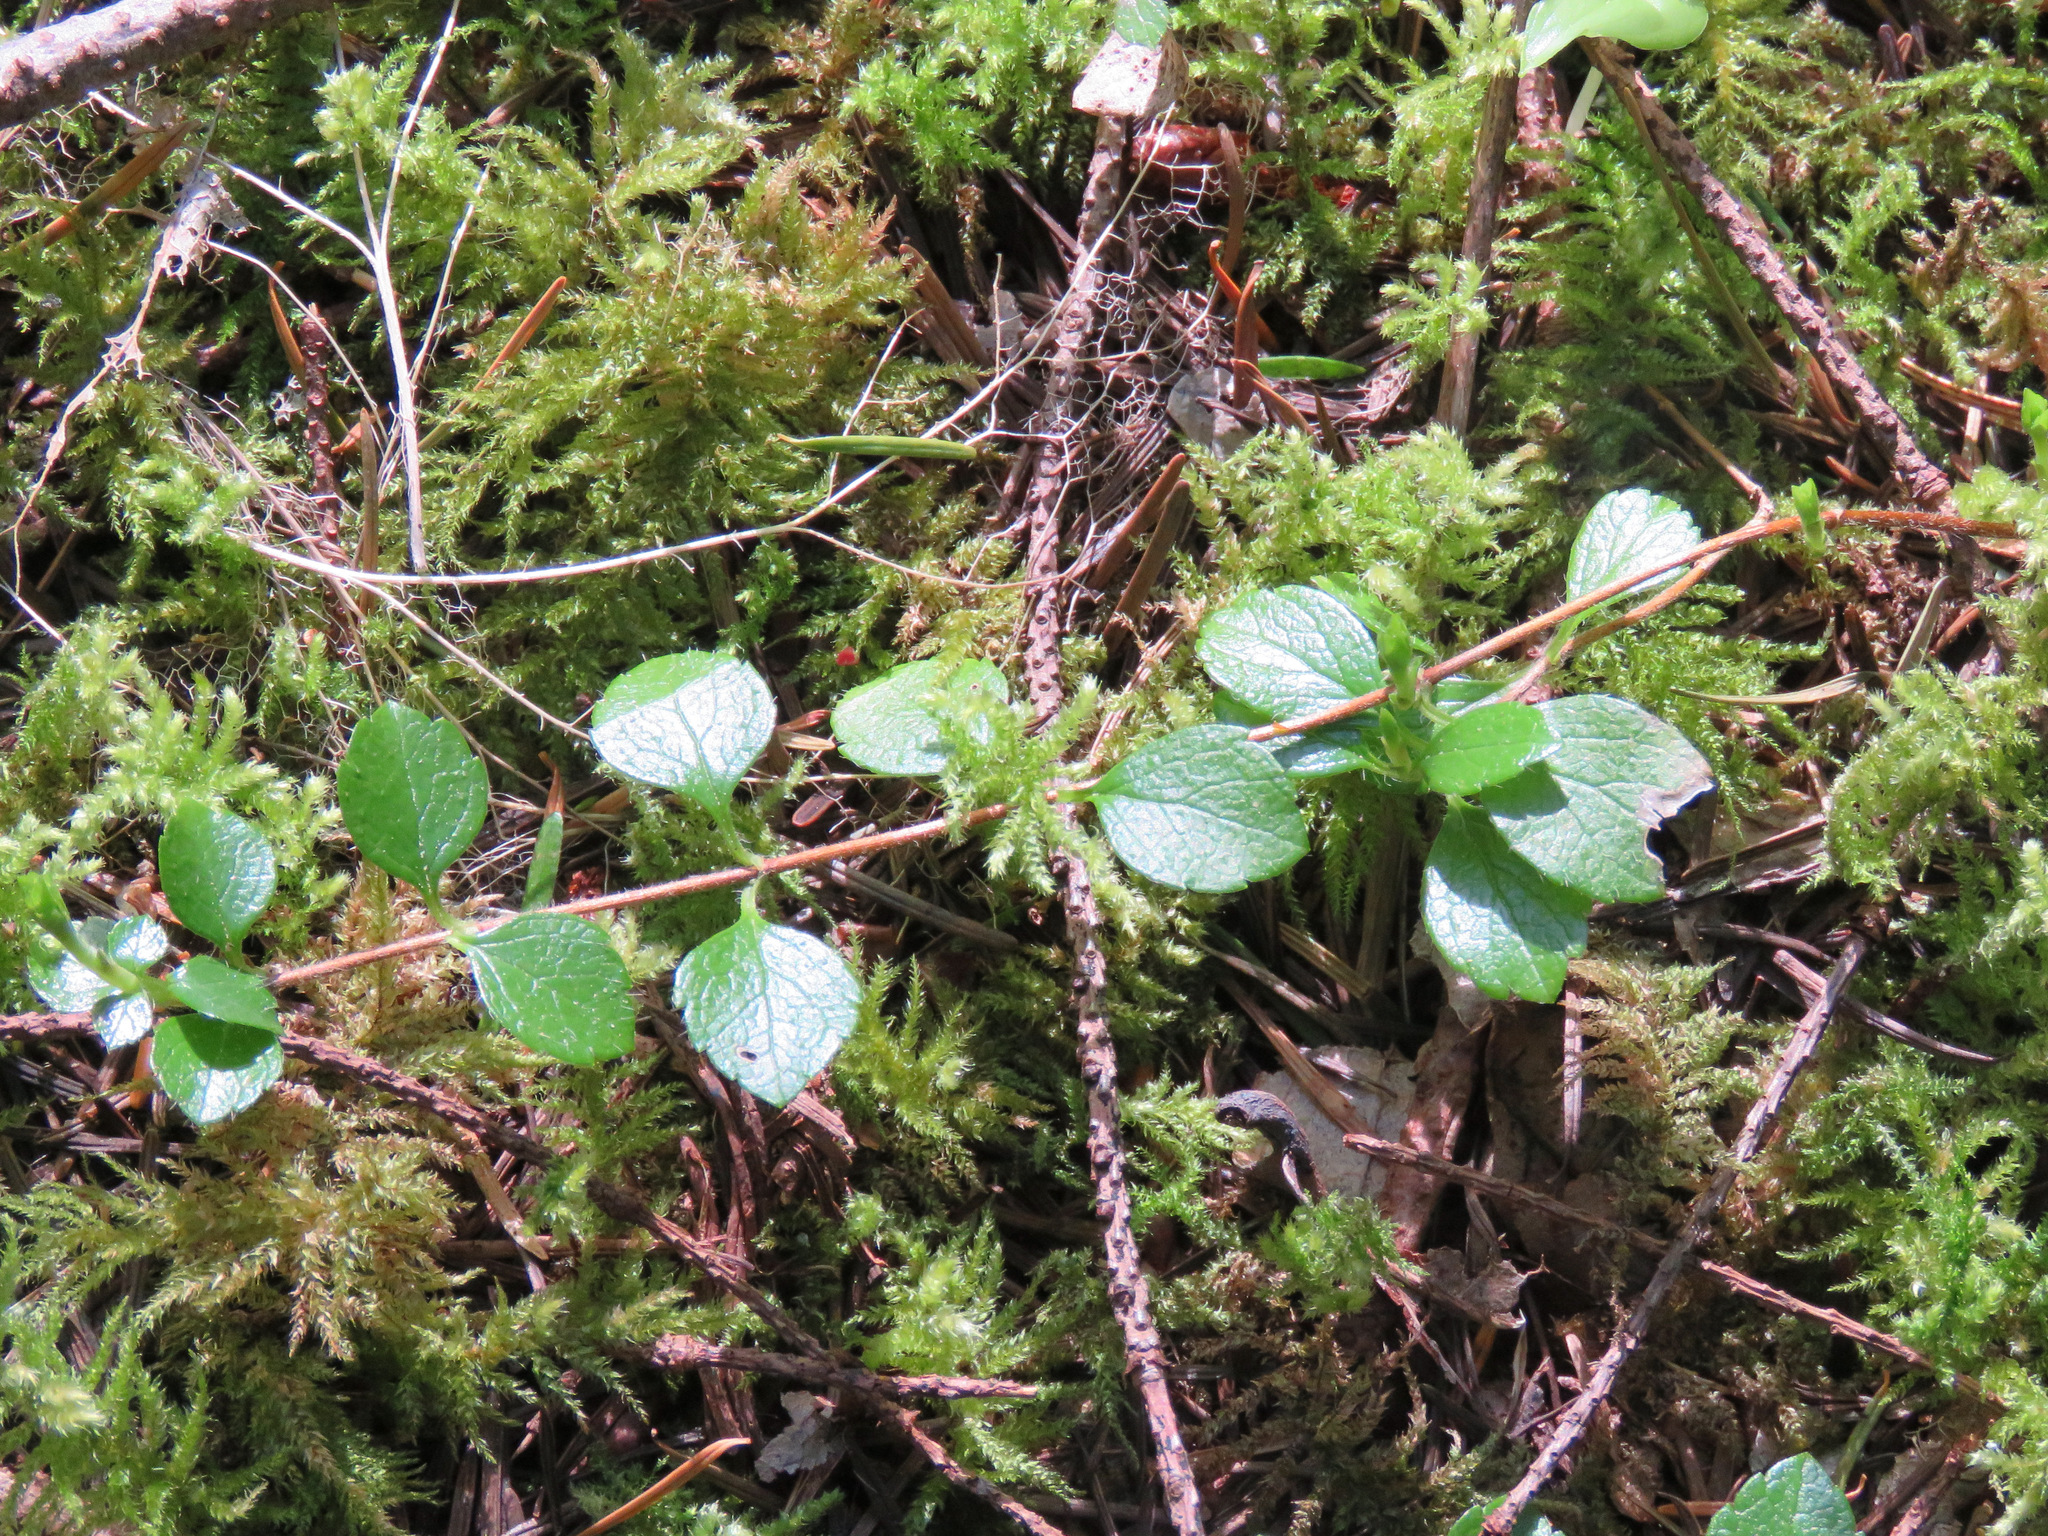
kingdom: Plantae
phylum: Tracheophyta
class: Magnoliopsida
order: Dipsacales
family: Caprifoliaceae
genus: Linnaea
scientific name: Linnaea borealis
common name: Twinflower
